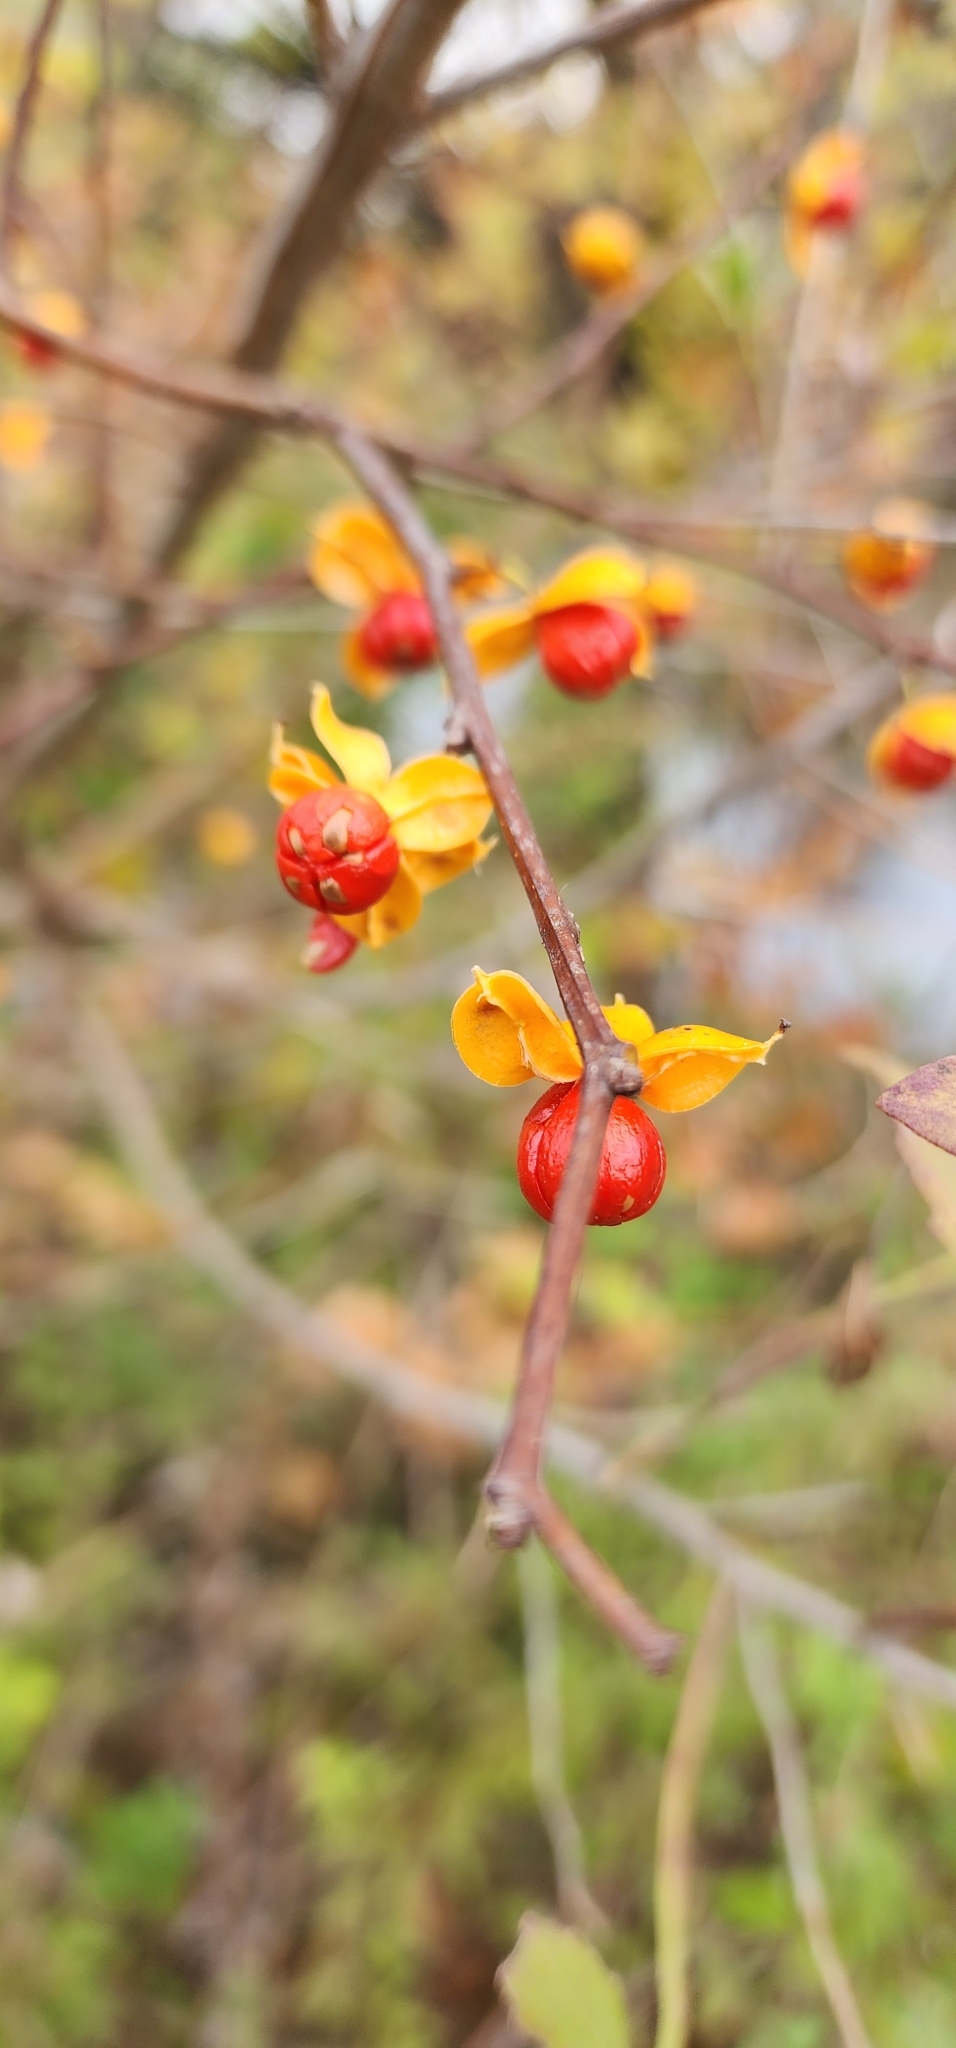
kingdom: Plantae
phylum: Tracheophyta
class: Magnoliopsida
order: Celastrales
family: Celastraceae
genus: Celastrus
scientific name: Celastrus orbiculatus
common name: Oriental bittersweet
